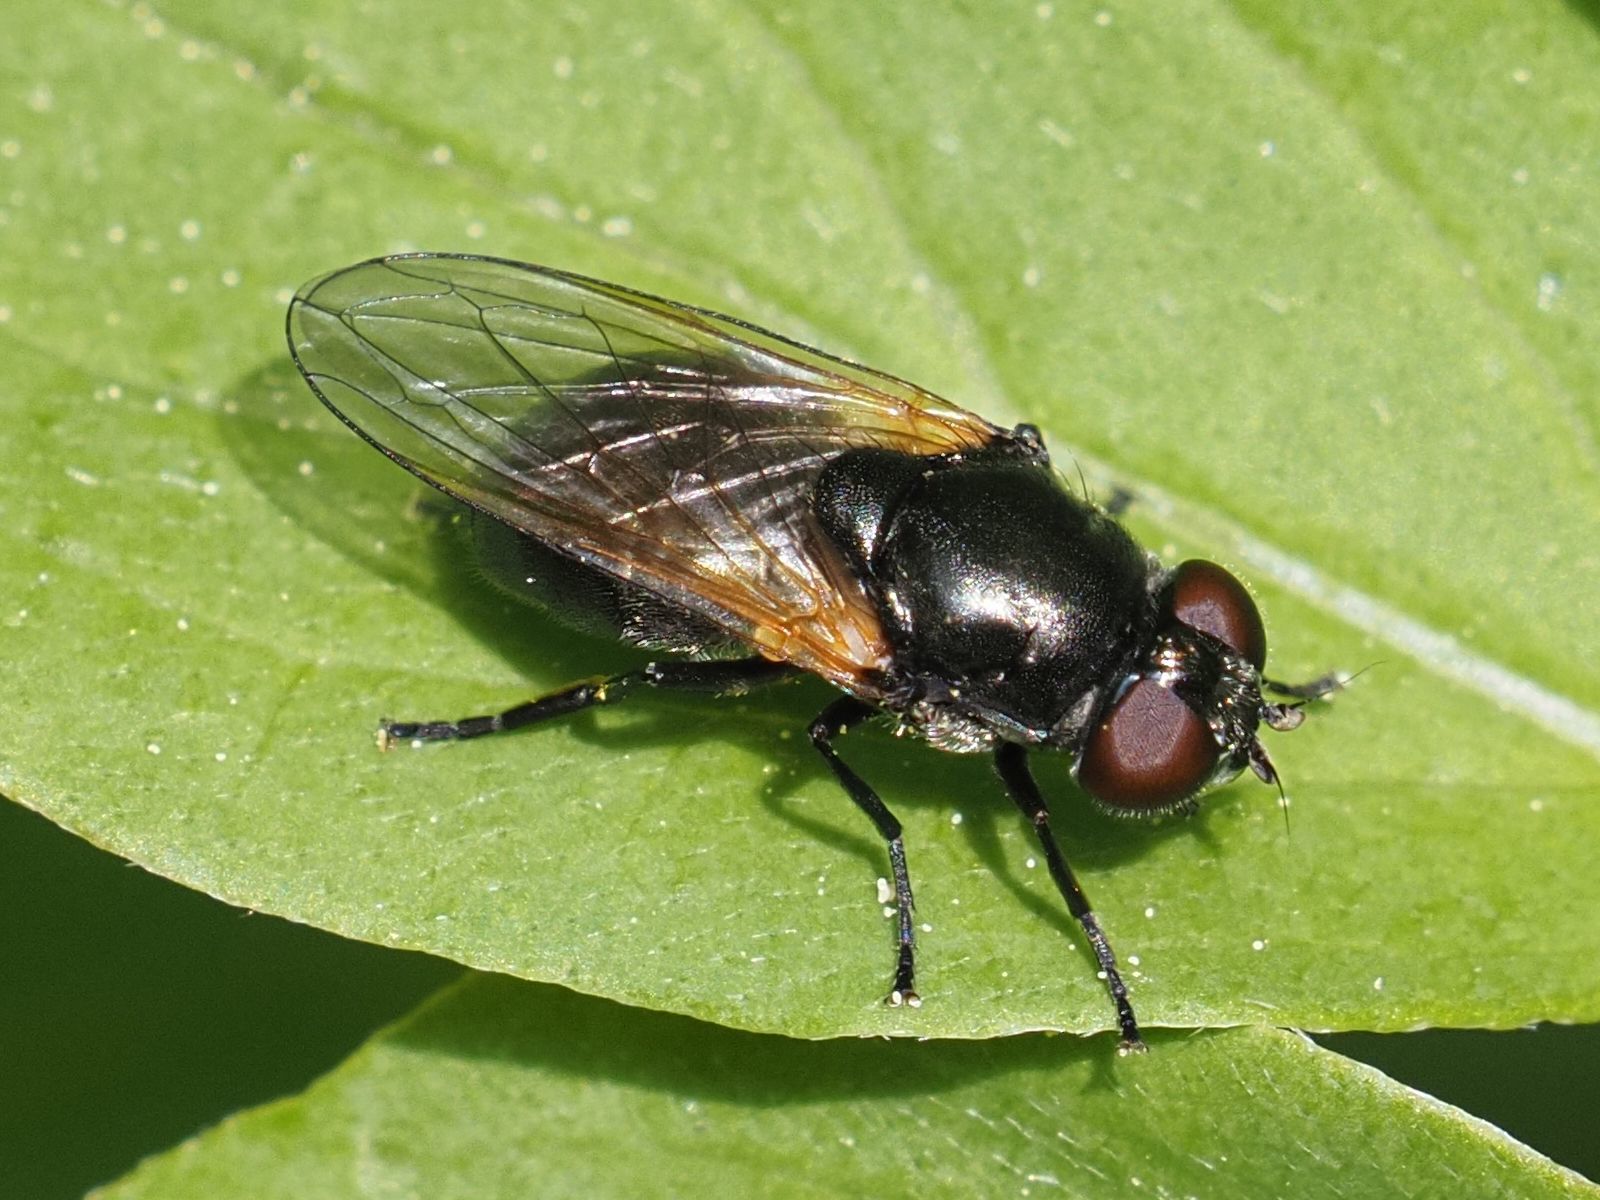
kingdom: Animalia
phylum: Arthropoda
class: Insecta
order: Diptera
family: Syrphidae
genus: Cheilosia
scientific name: Cheilosia impressa
